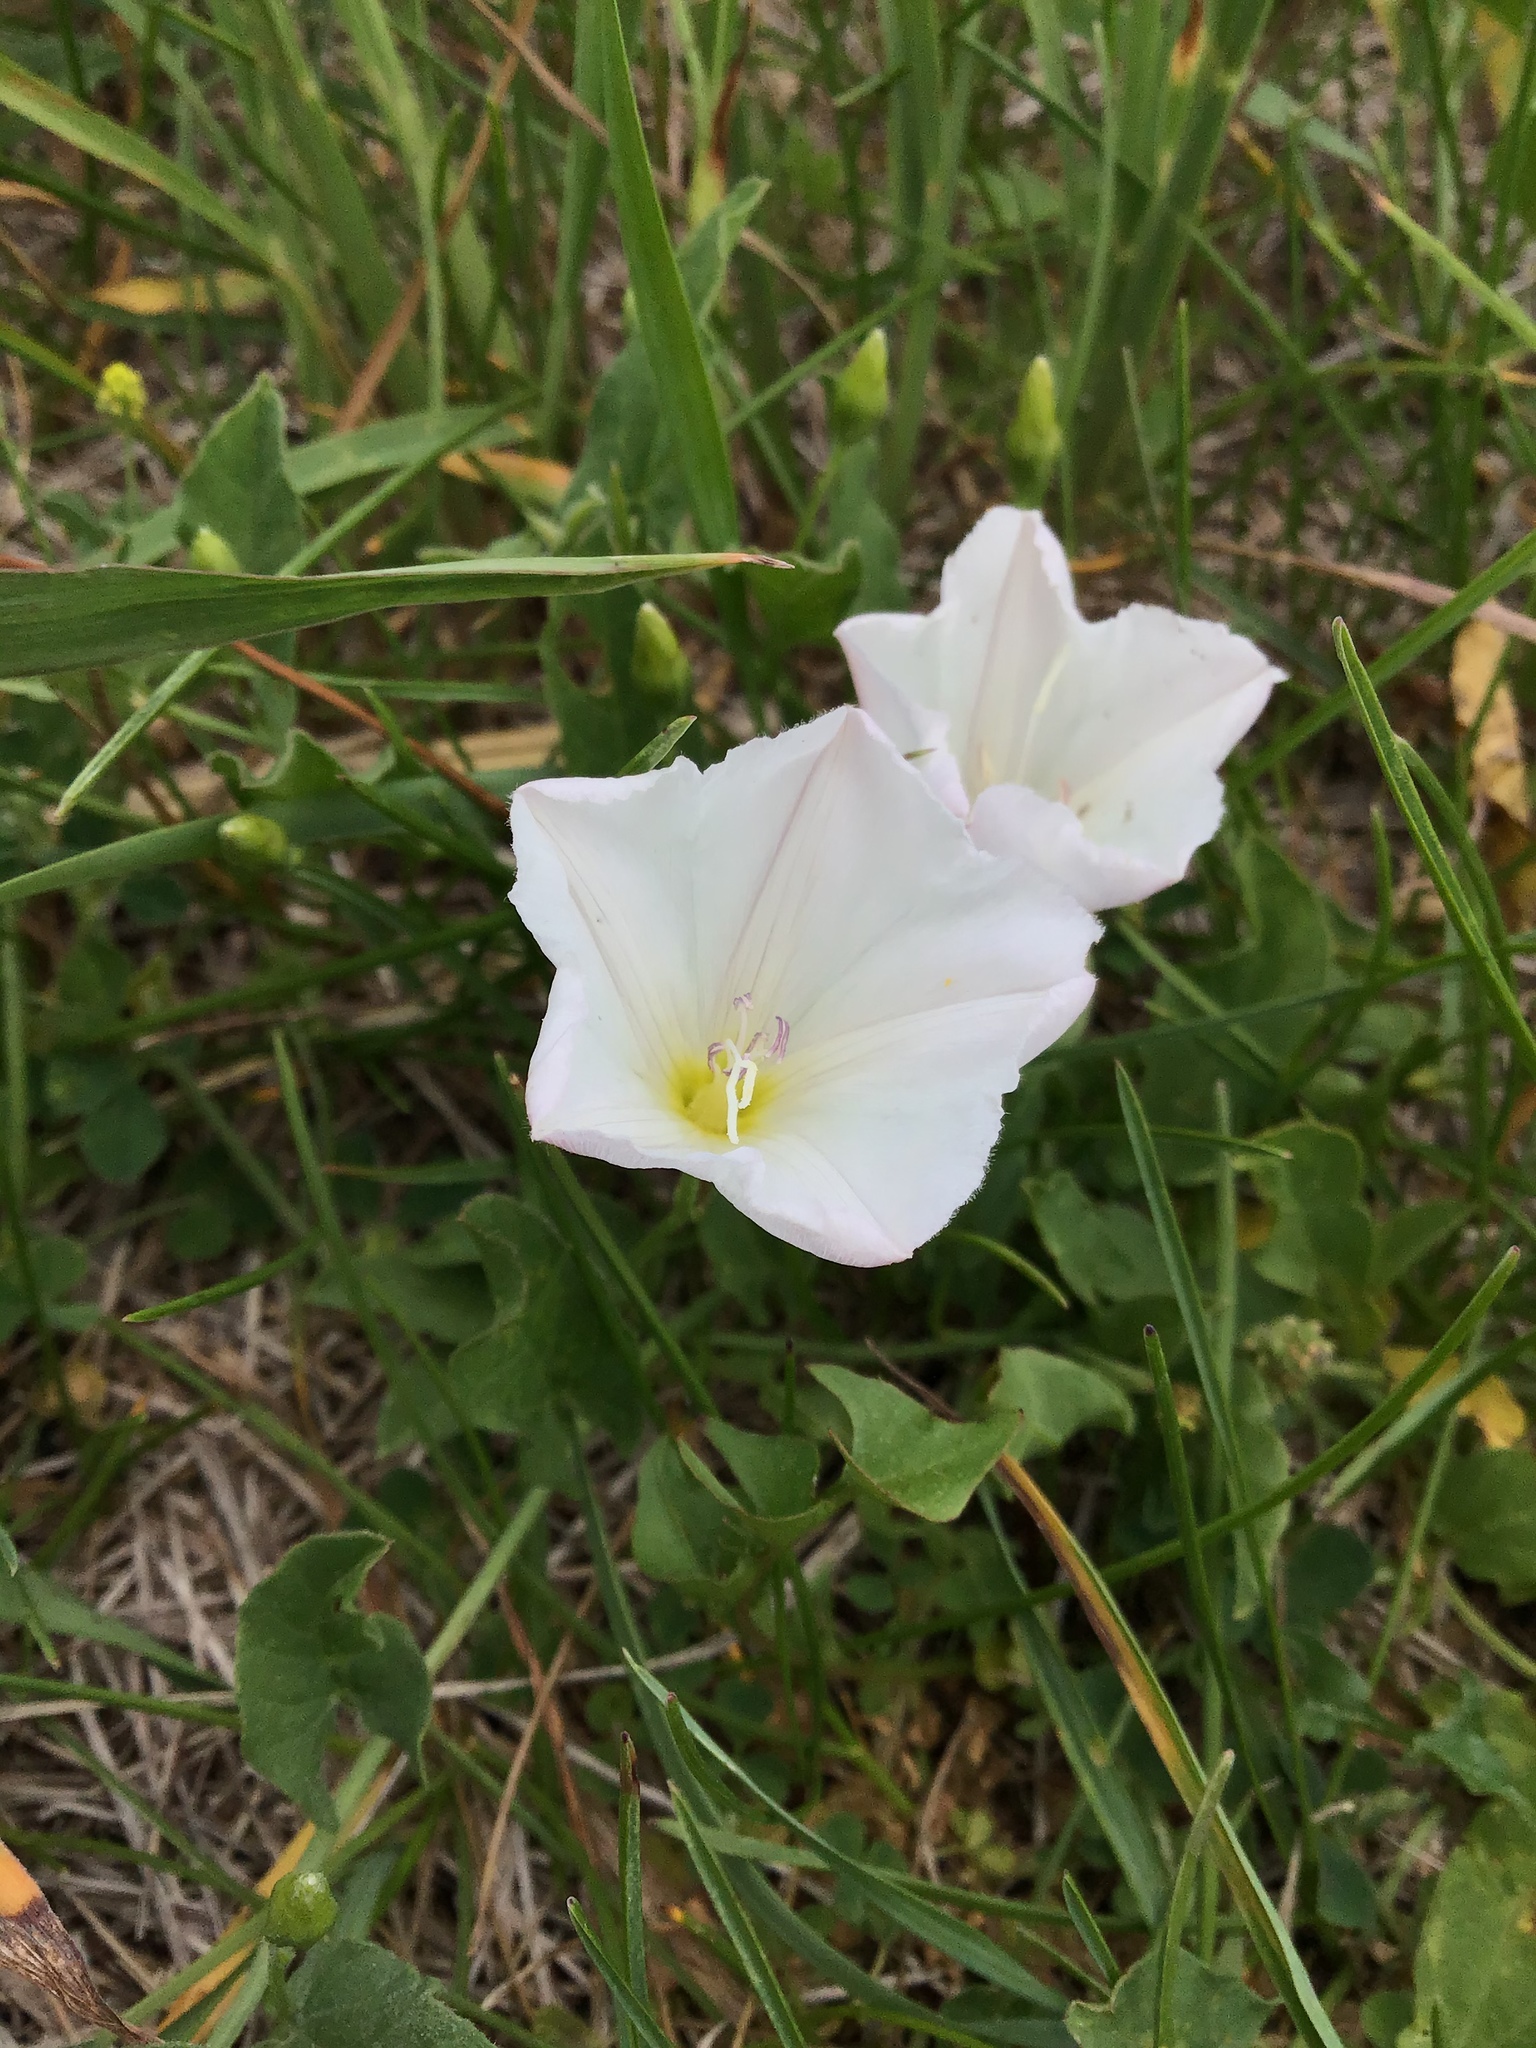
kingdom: Plantae
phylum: Tracheophyta
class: Magnoliopsida
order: Solanales
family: Convolvulaceae
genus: Convolvulus
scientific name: Convolvulus arvensis
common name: Field bindweed
